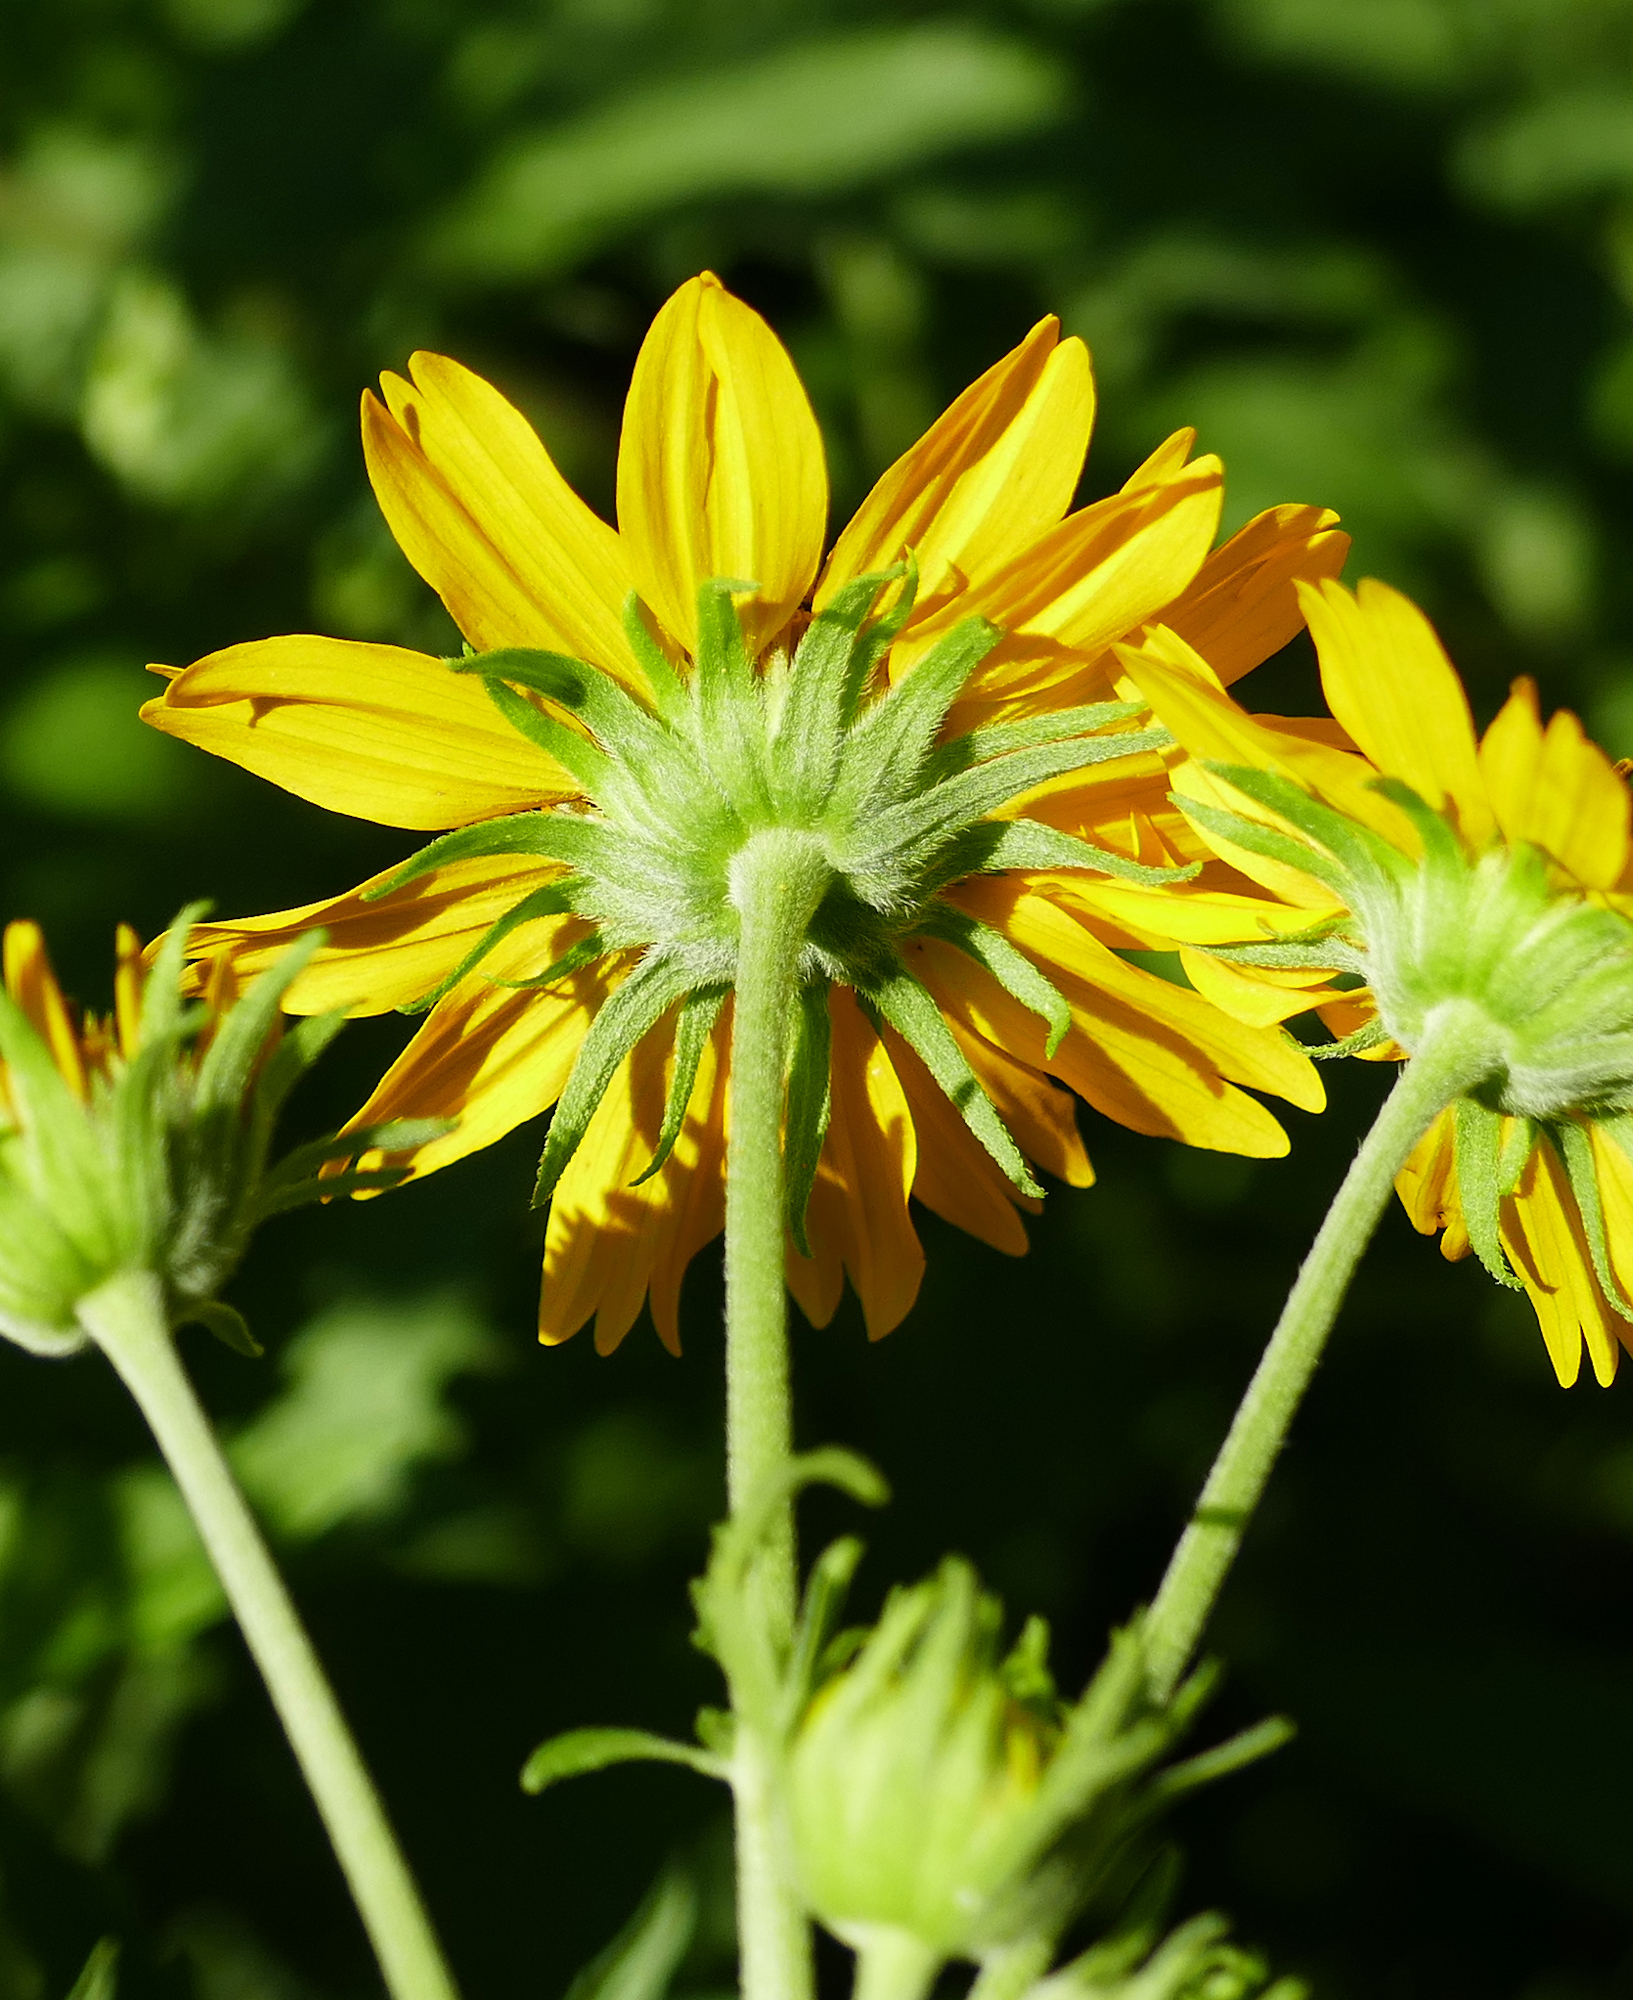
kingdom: Plantae
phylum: Tracheophyta
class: Magnoliopsida
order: Asterales
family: Asteraceae
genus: Verbesina
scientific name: Verbesina encelioides
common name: Golden crownbeard
